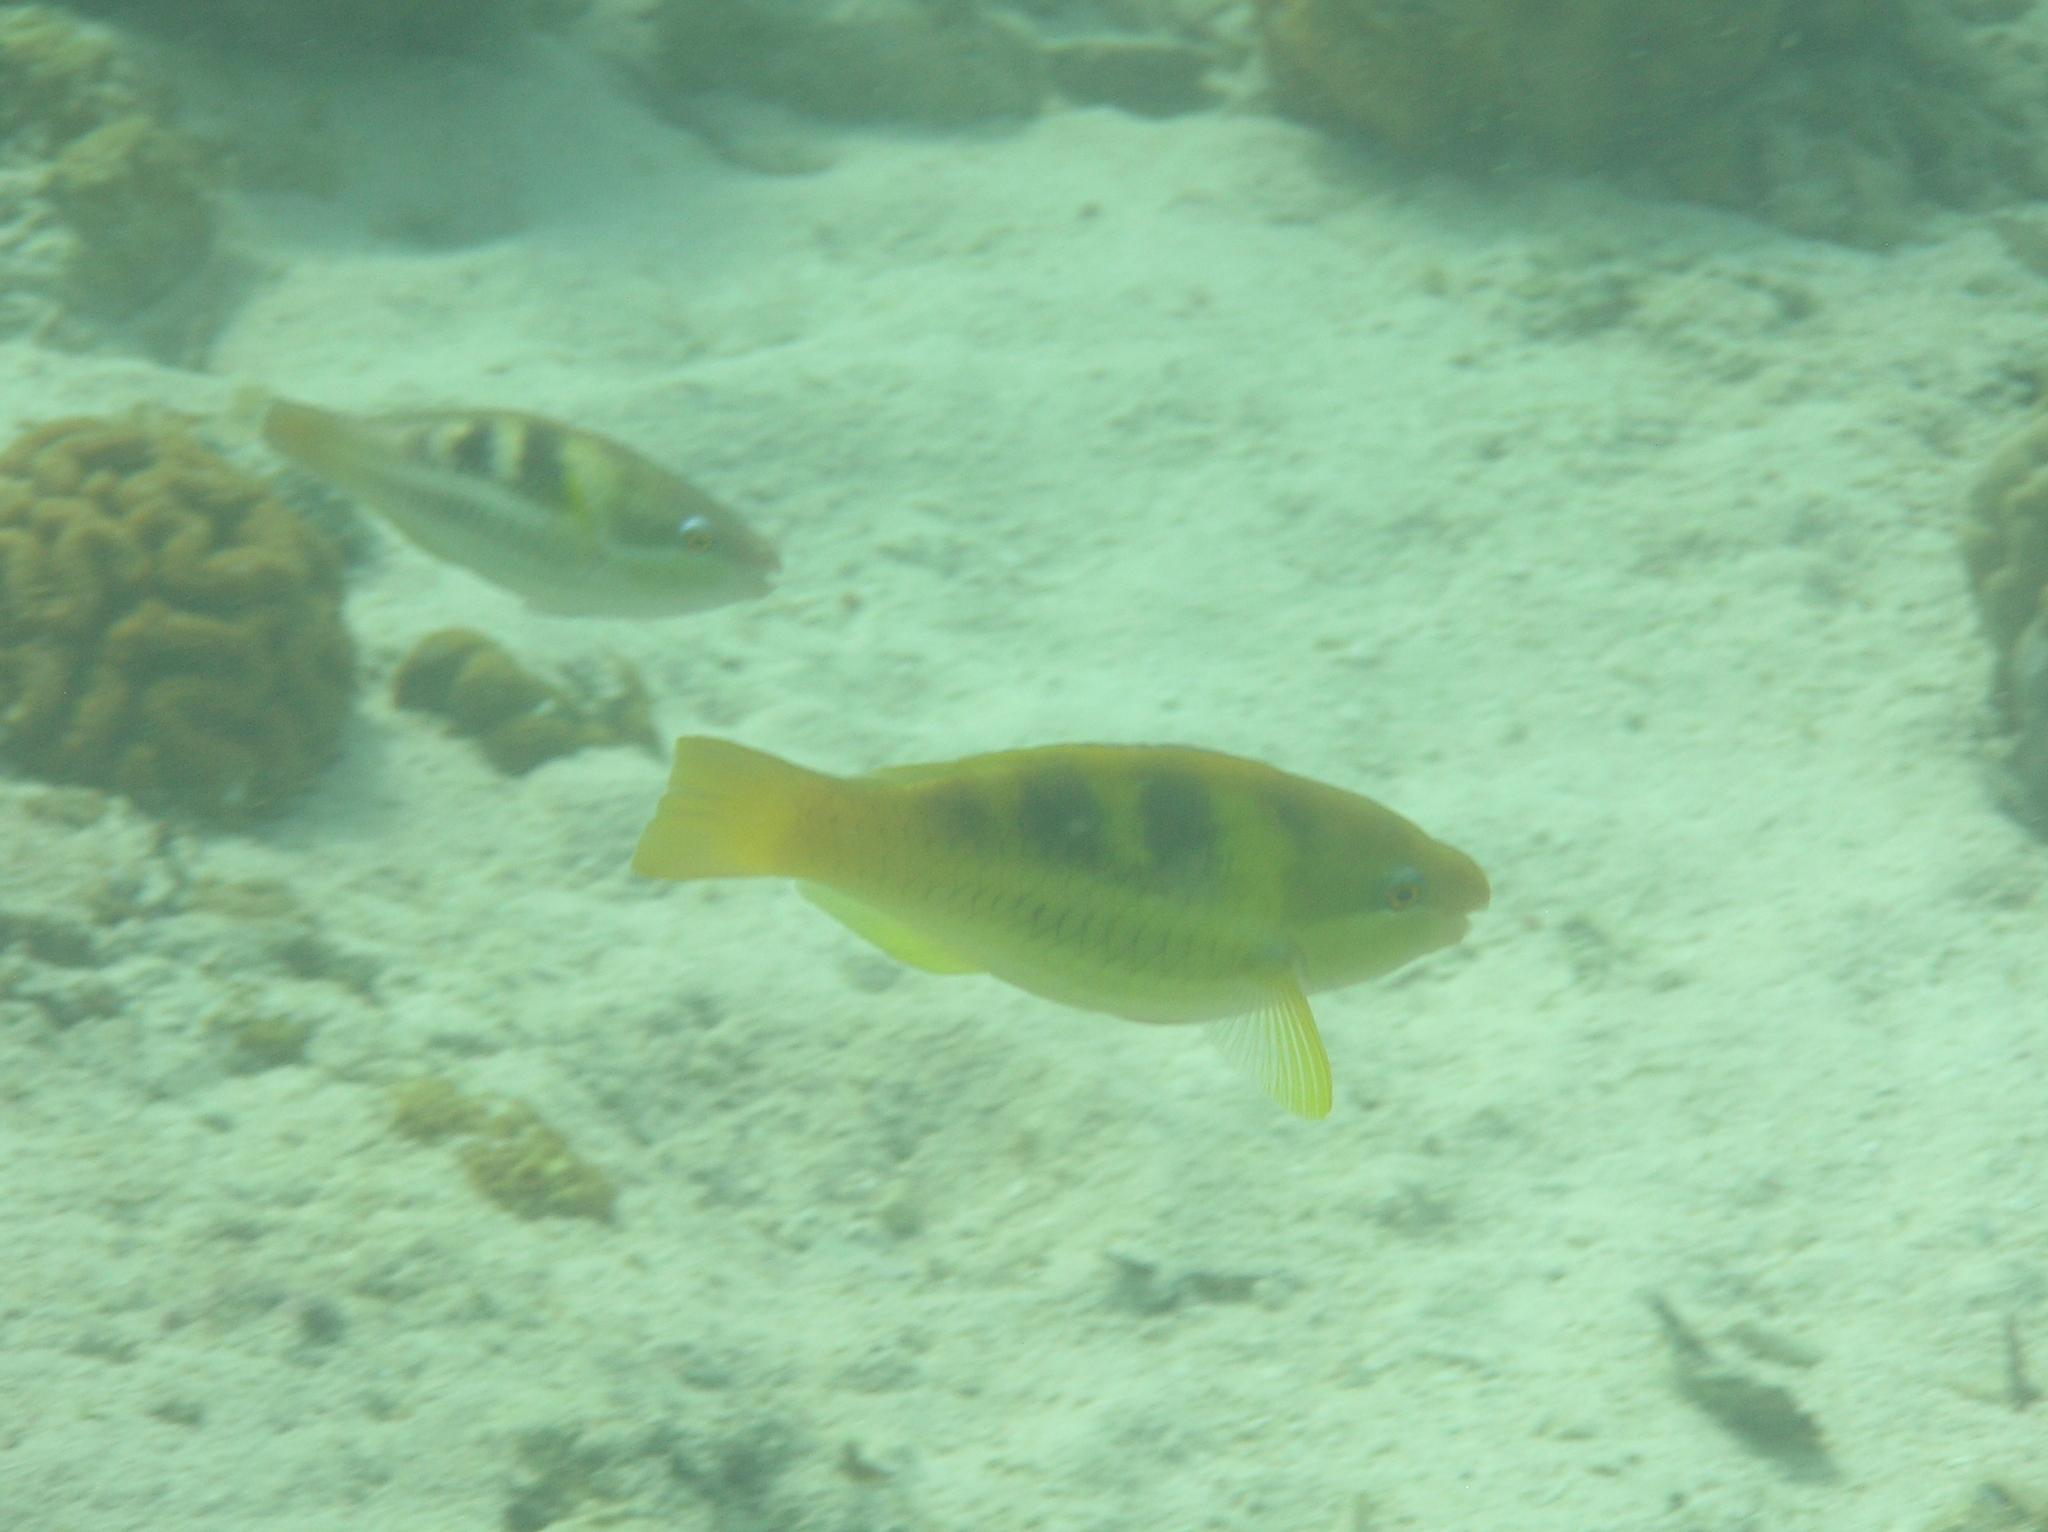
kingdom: Animalia
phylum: Chordata
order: Perciformes
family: Scaridae
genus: Scarus
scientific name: Scarus dimidiatus
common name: Yellowbarred parrotfish
